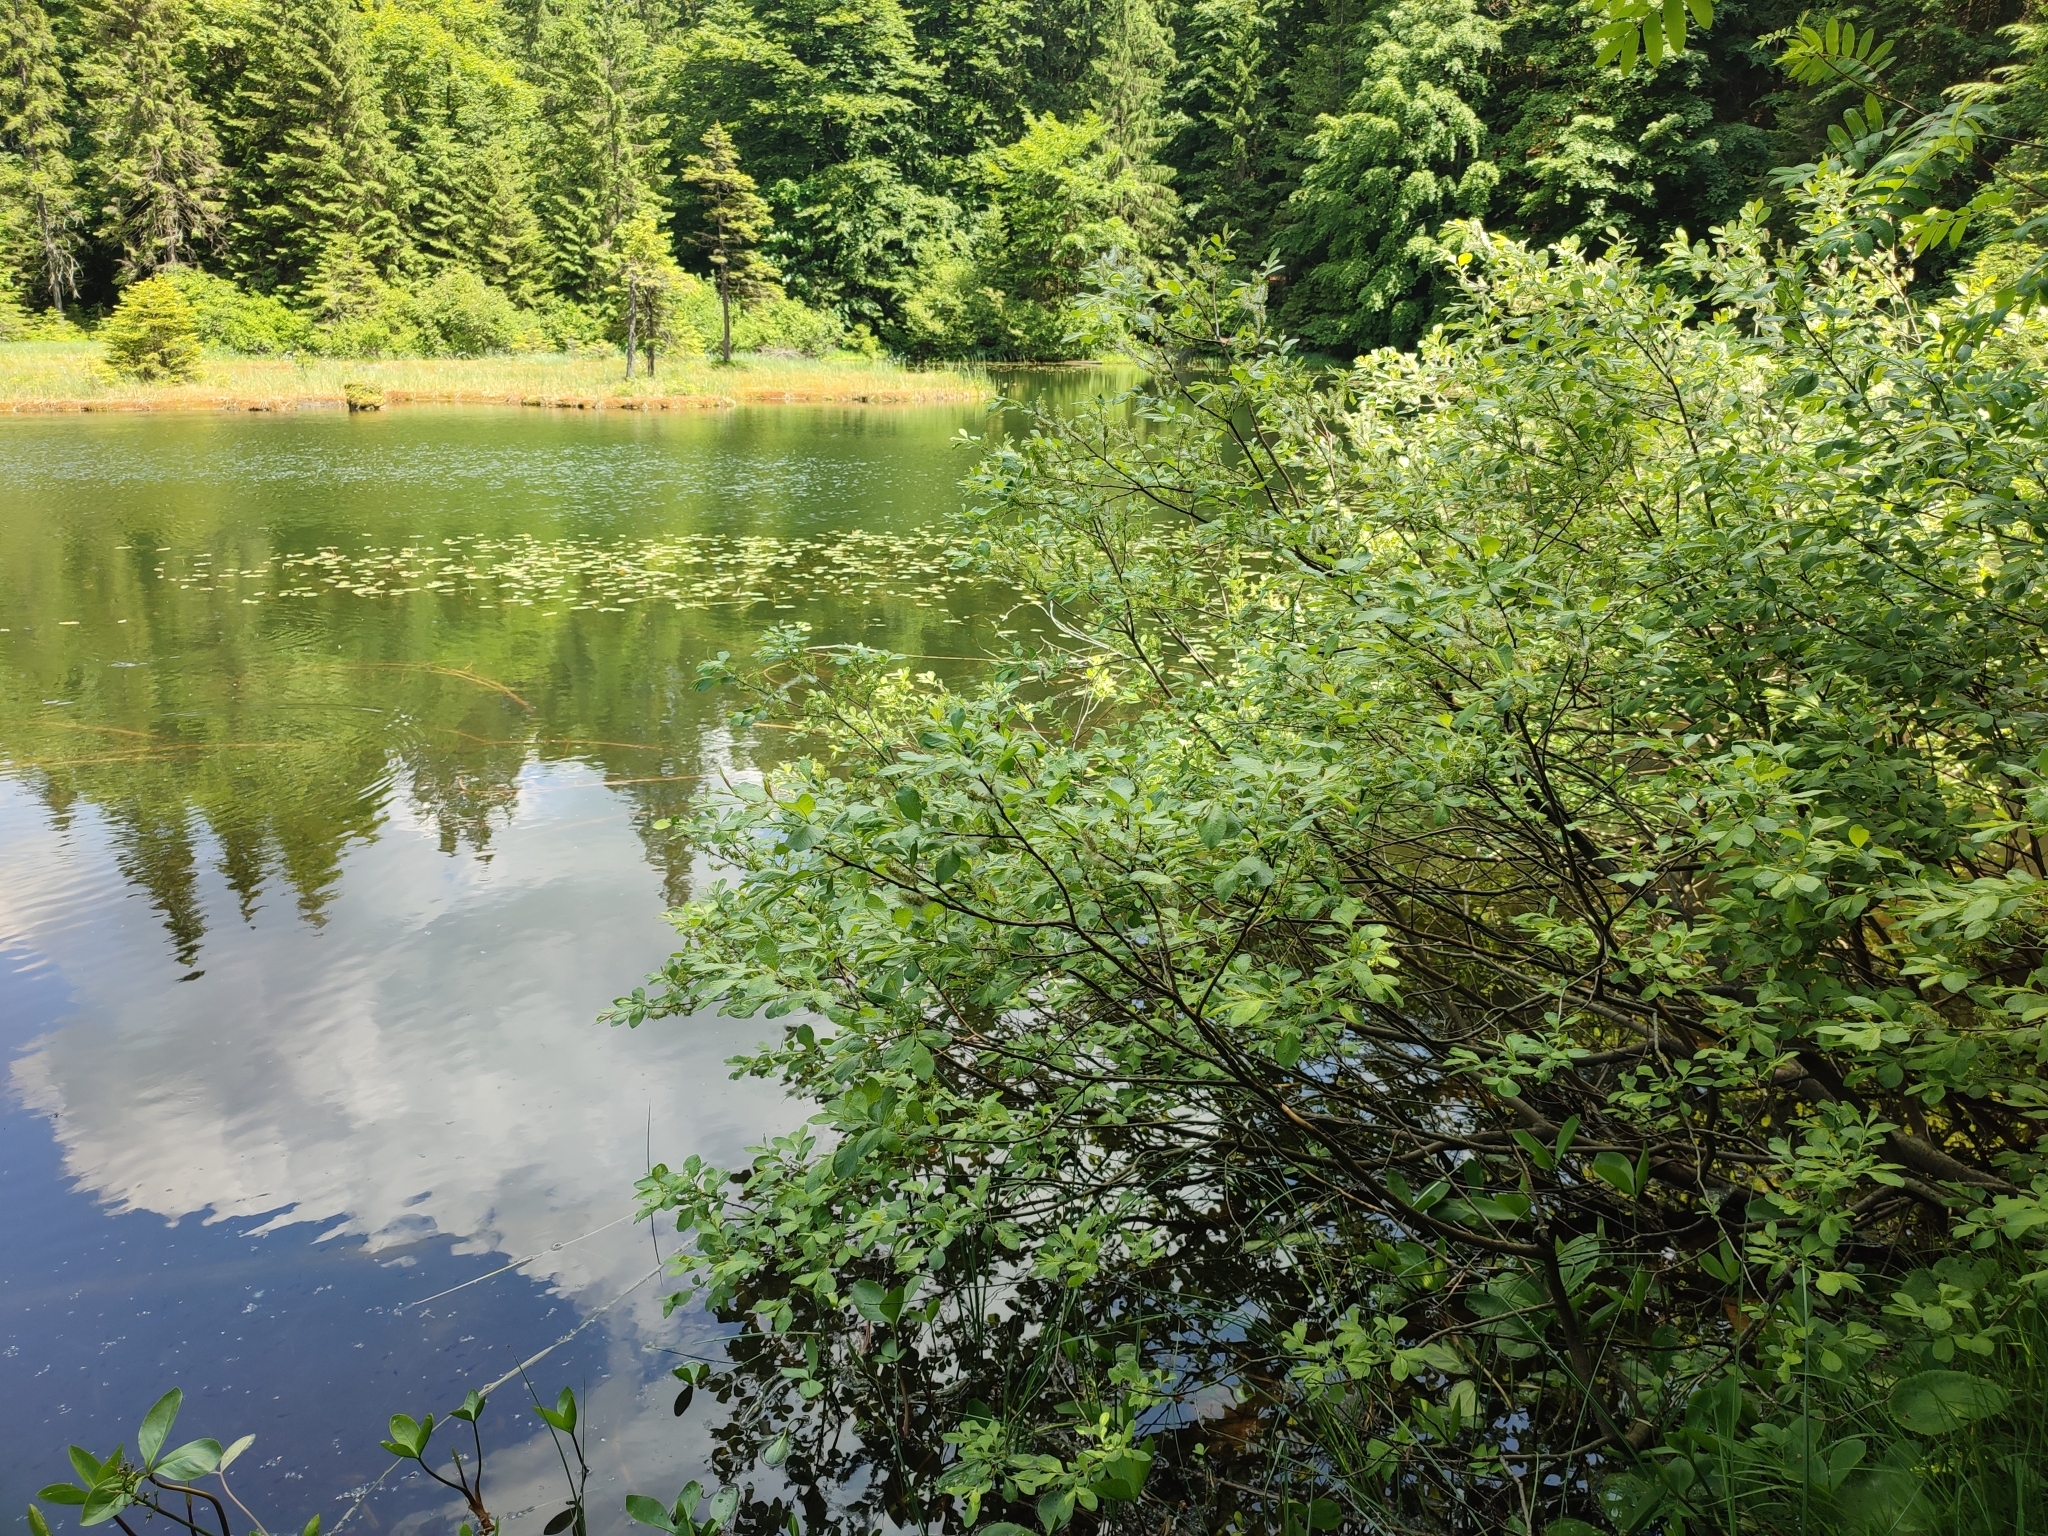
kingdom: Plantae
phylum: Tracheophyta
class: Magnoliopsida
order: Fagales
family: Betulaceae
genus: Alnus
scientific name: Alnus incana
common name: Grey alder
